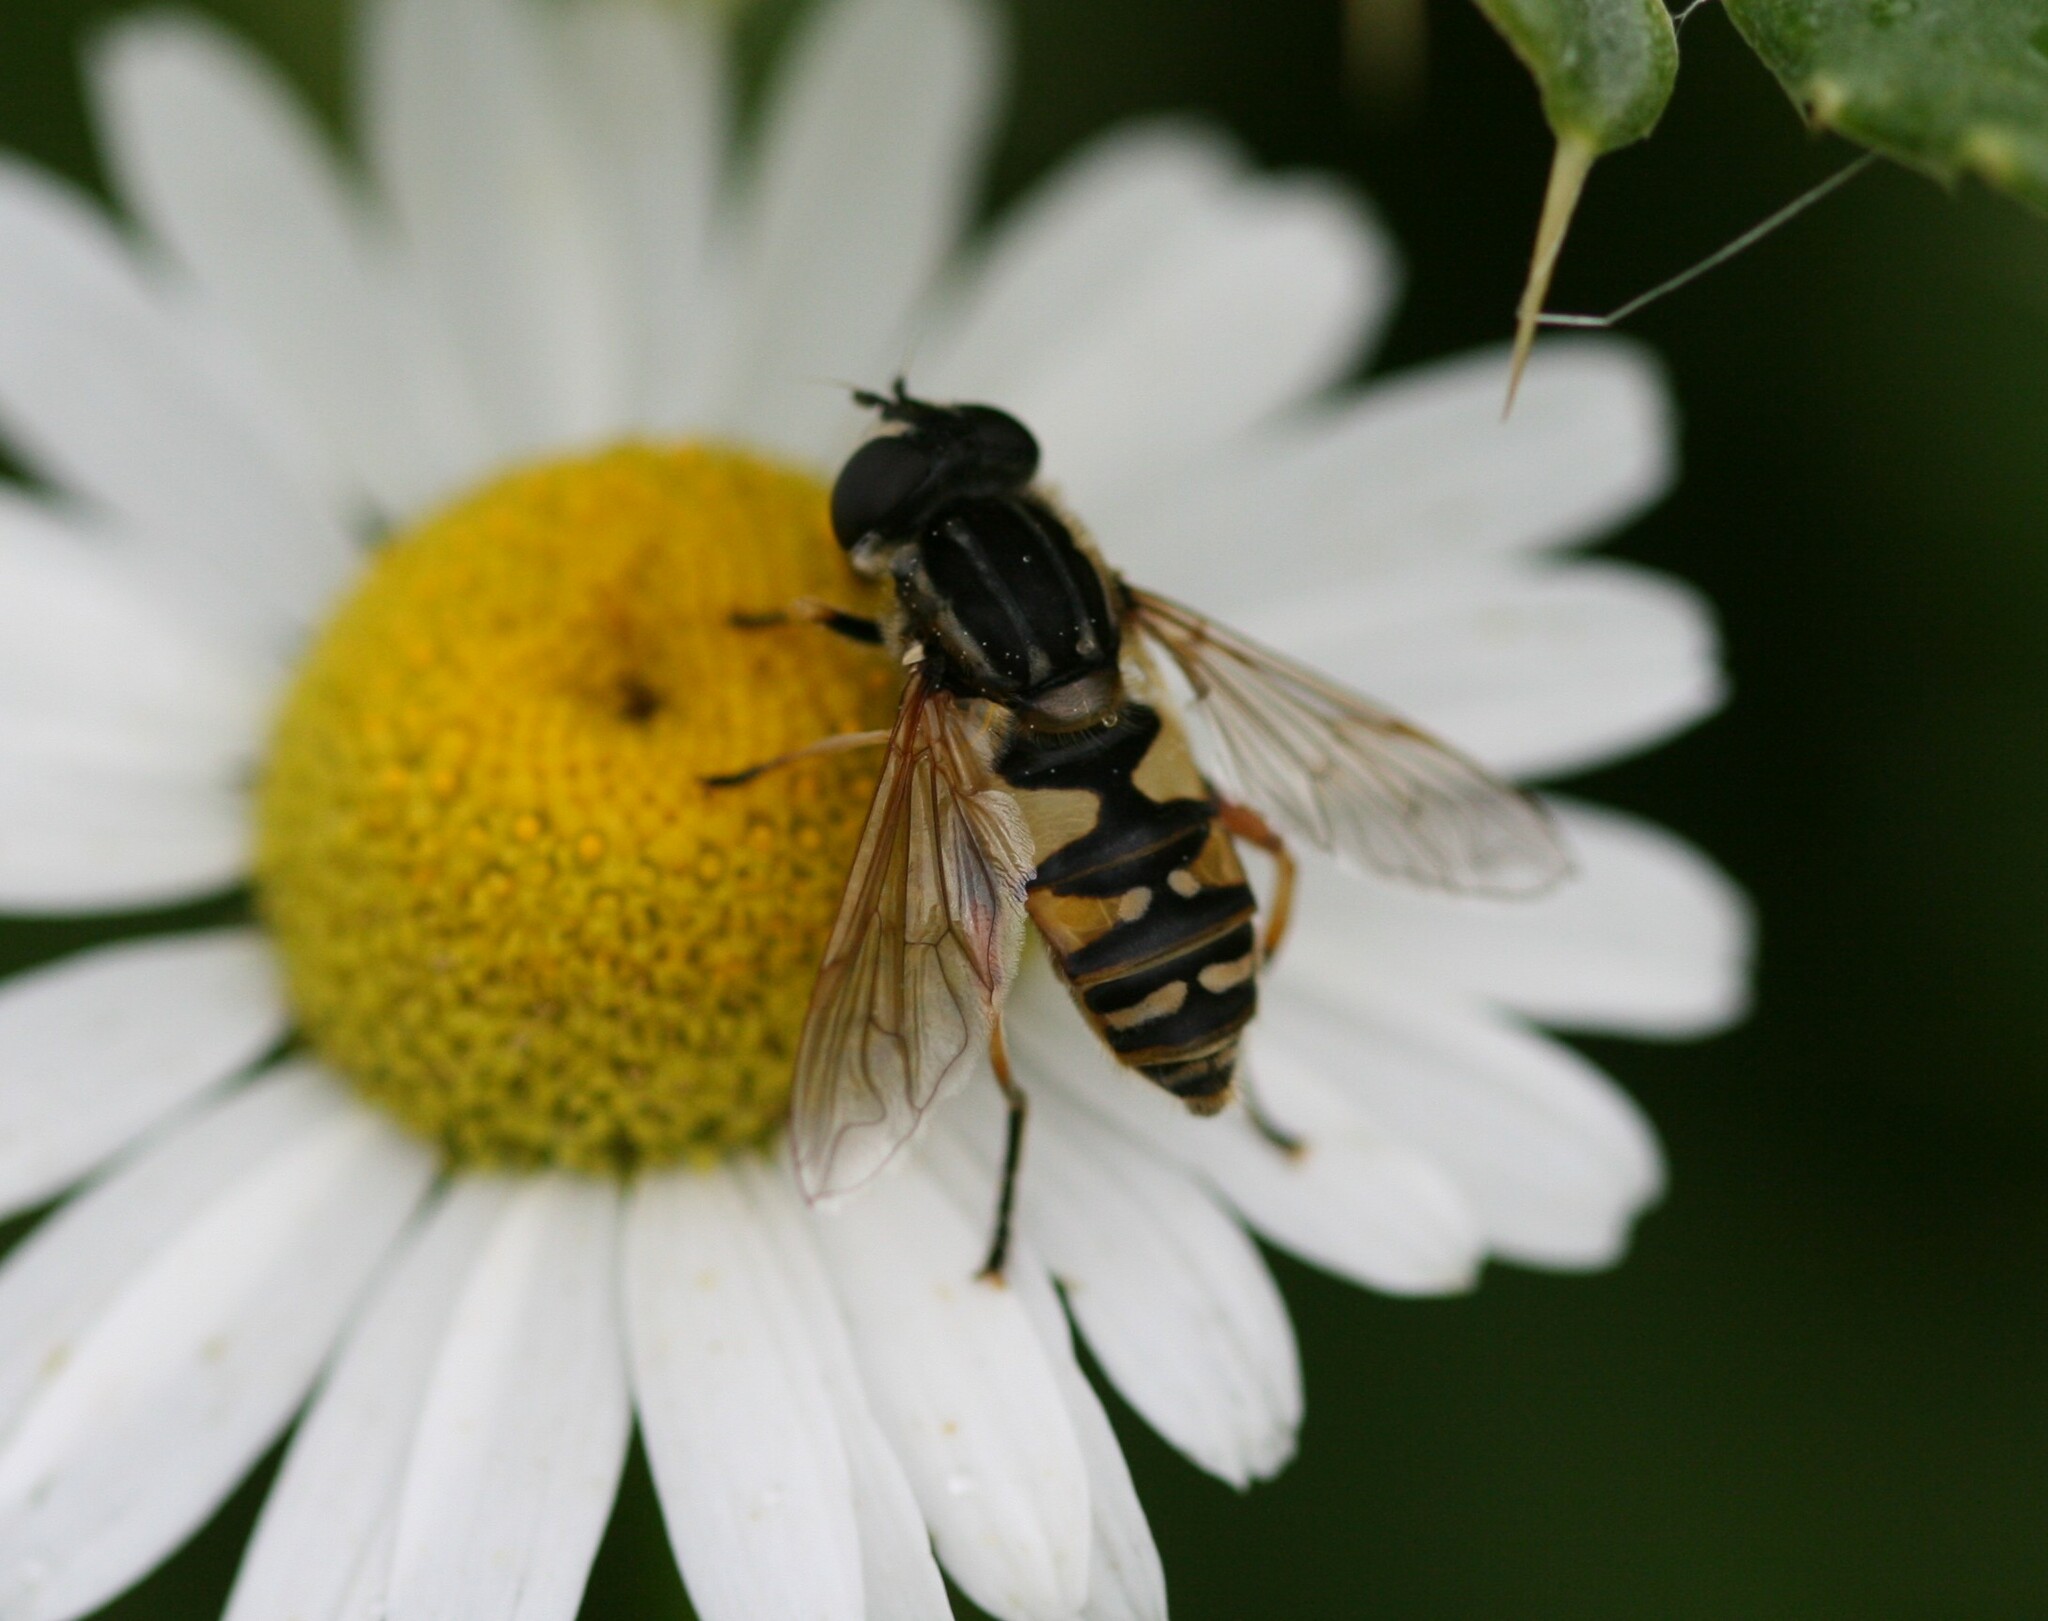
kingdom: Animalia
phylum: Arthropoda
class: Insecta
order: Diptera
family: Syrphidae
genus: Helophilus
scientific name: Helophilus pendulus
